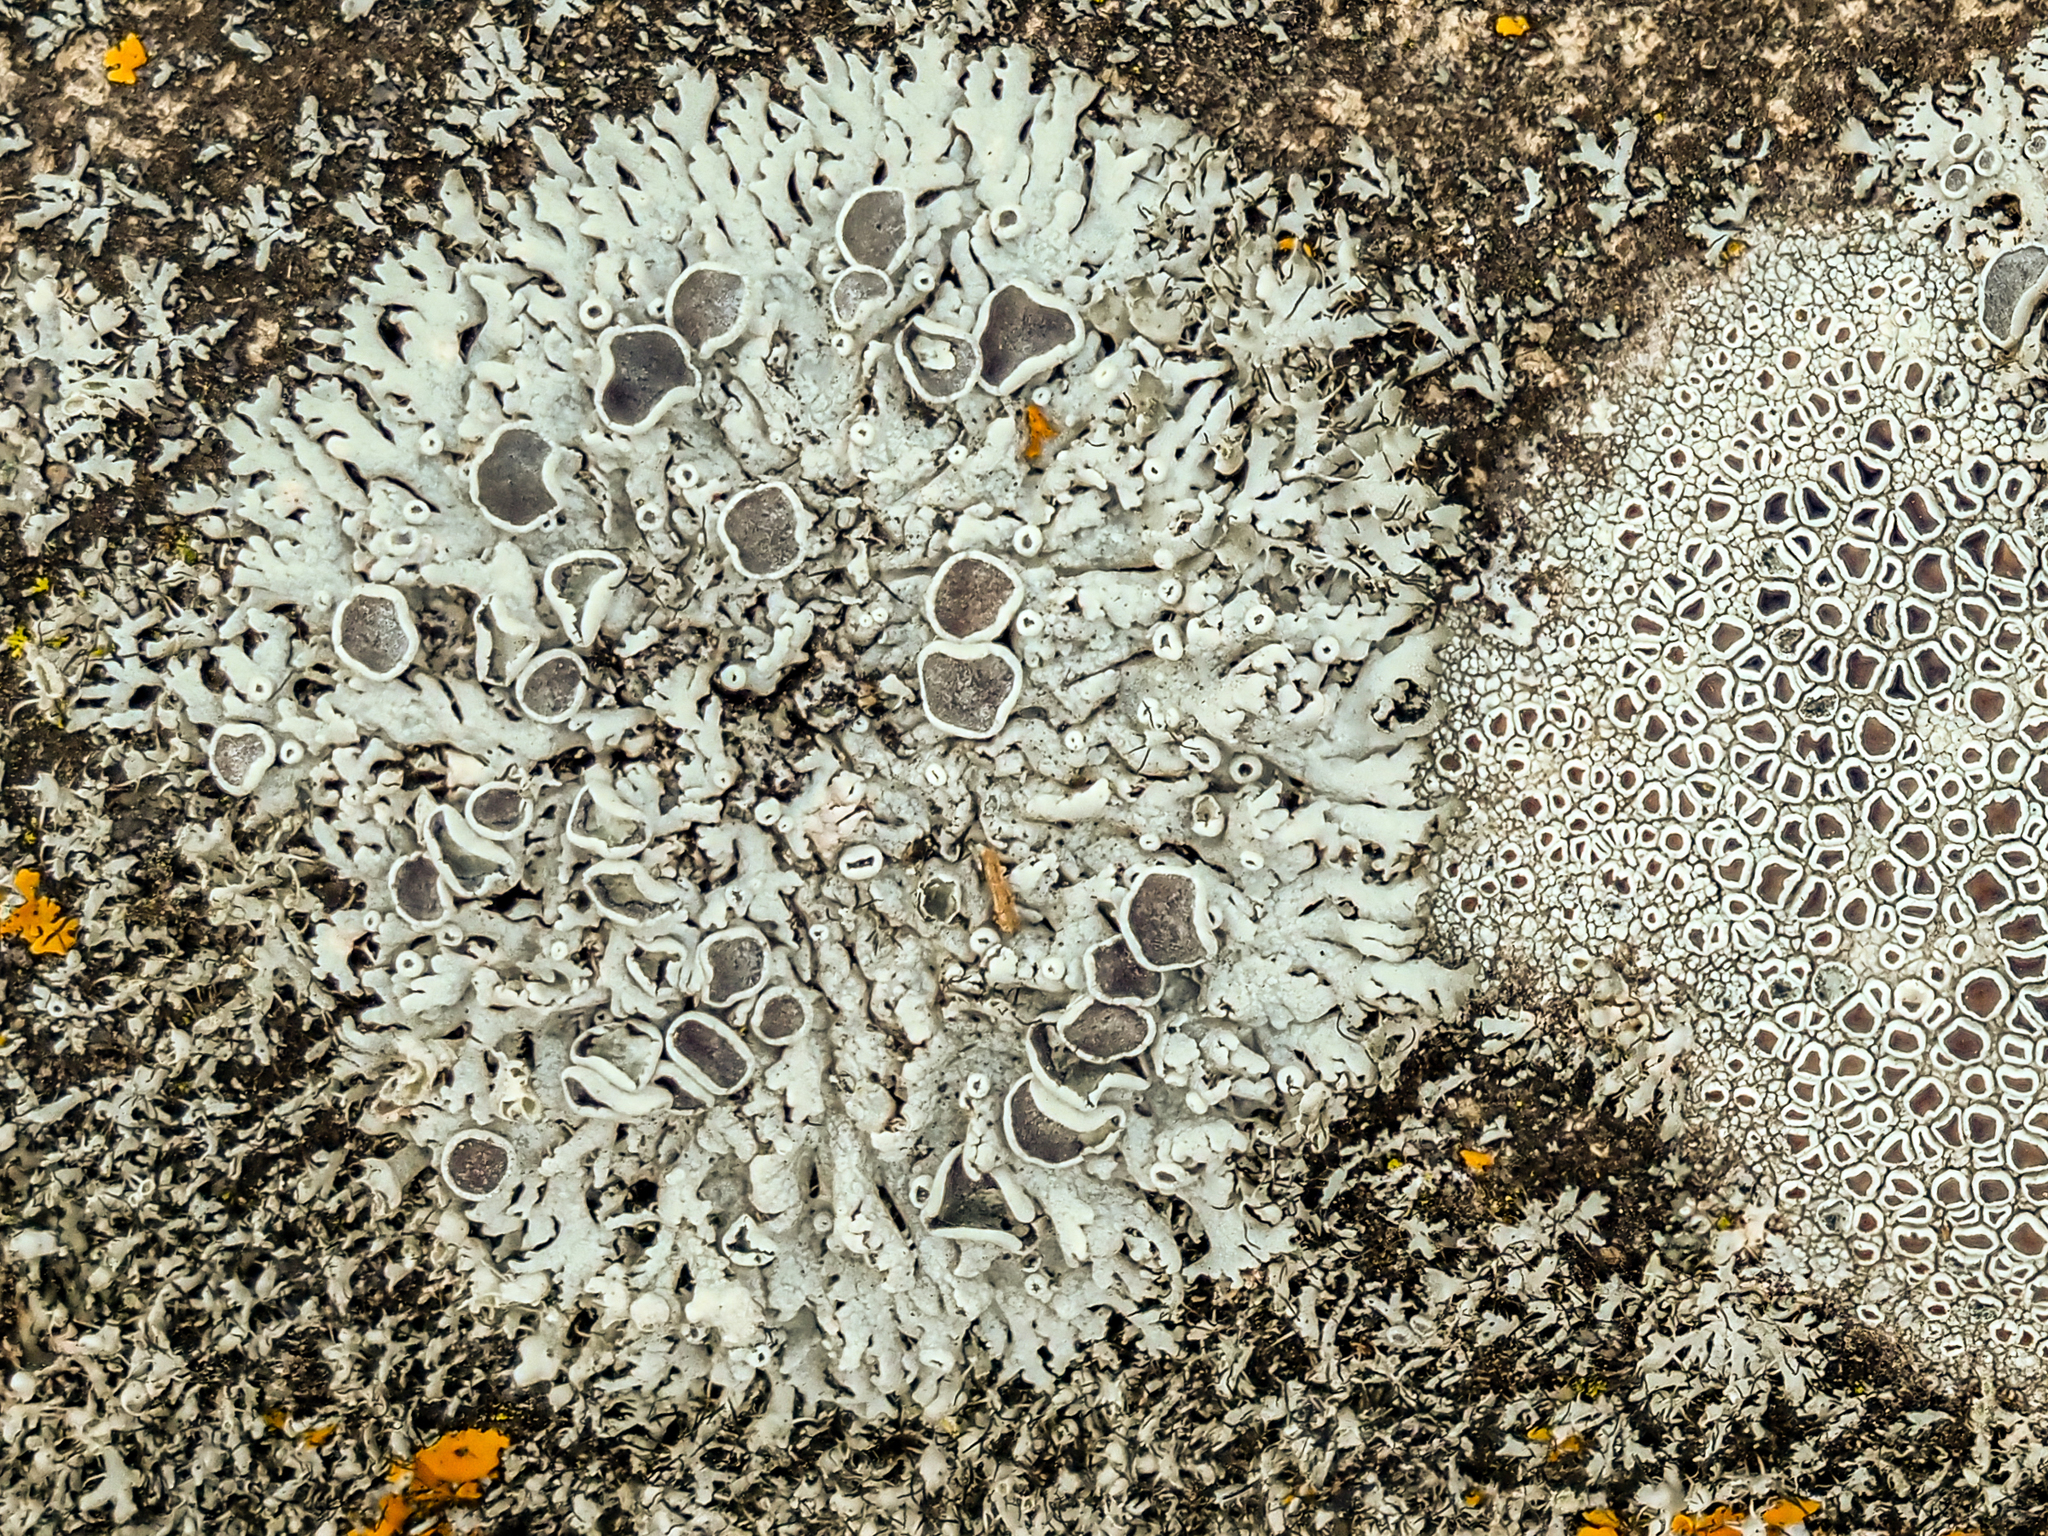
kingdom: Fungi
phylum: Ascomycota
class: Lecanoromycetes
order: Caliciales
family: Physciaceae
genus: Physcia
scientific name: Physcia stellaris
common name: Star rosette lichen
